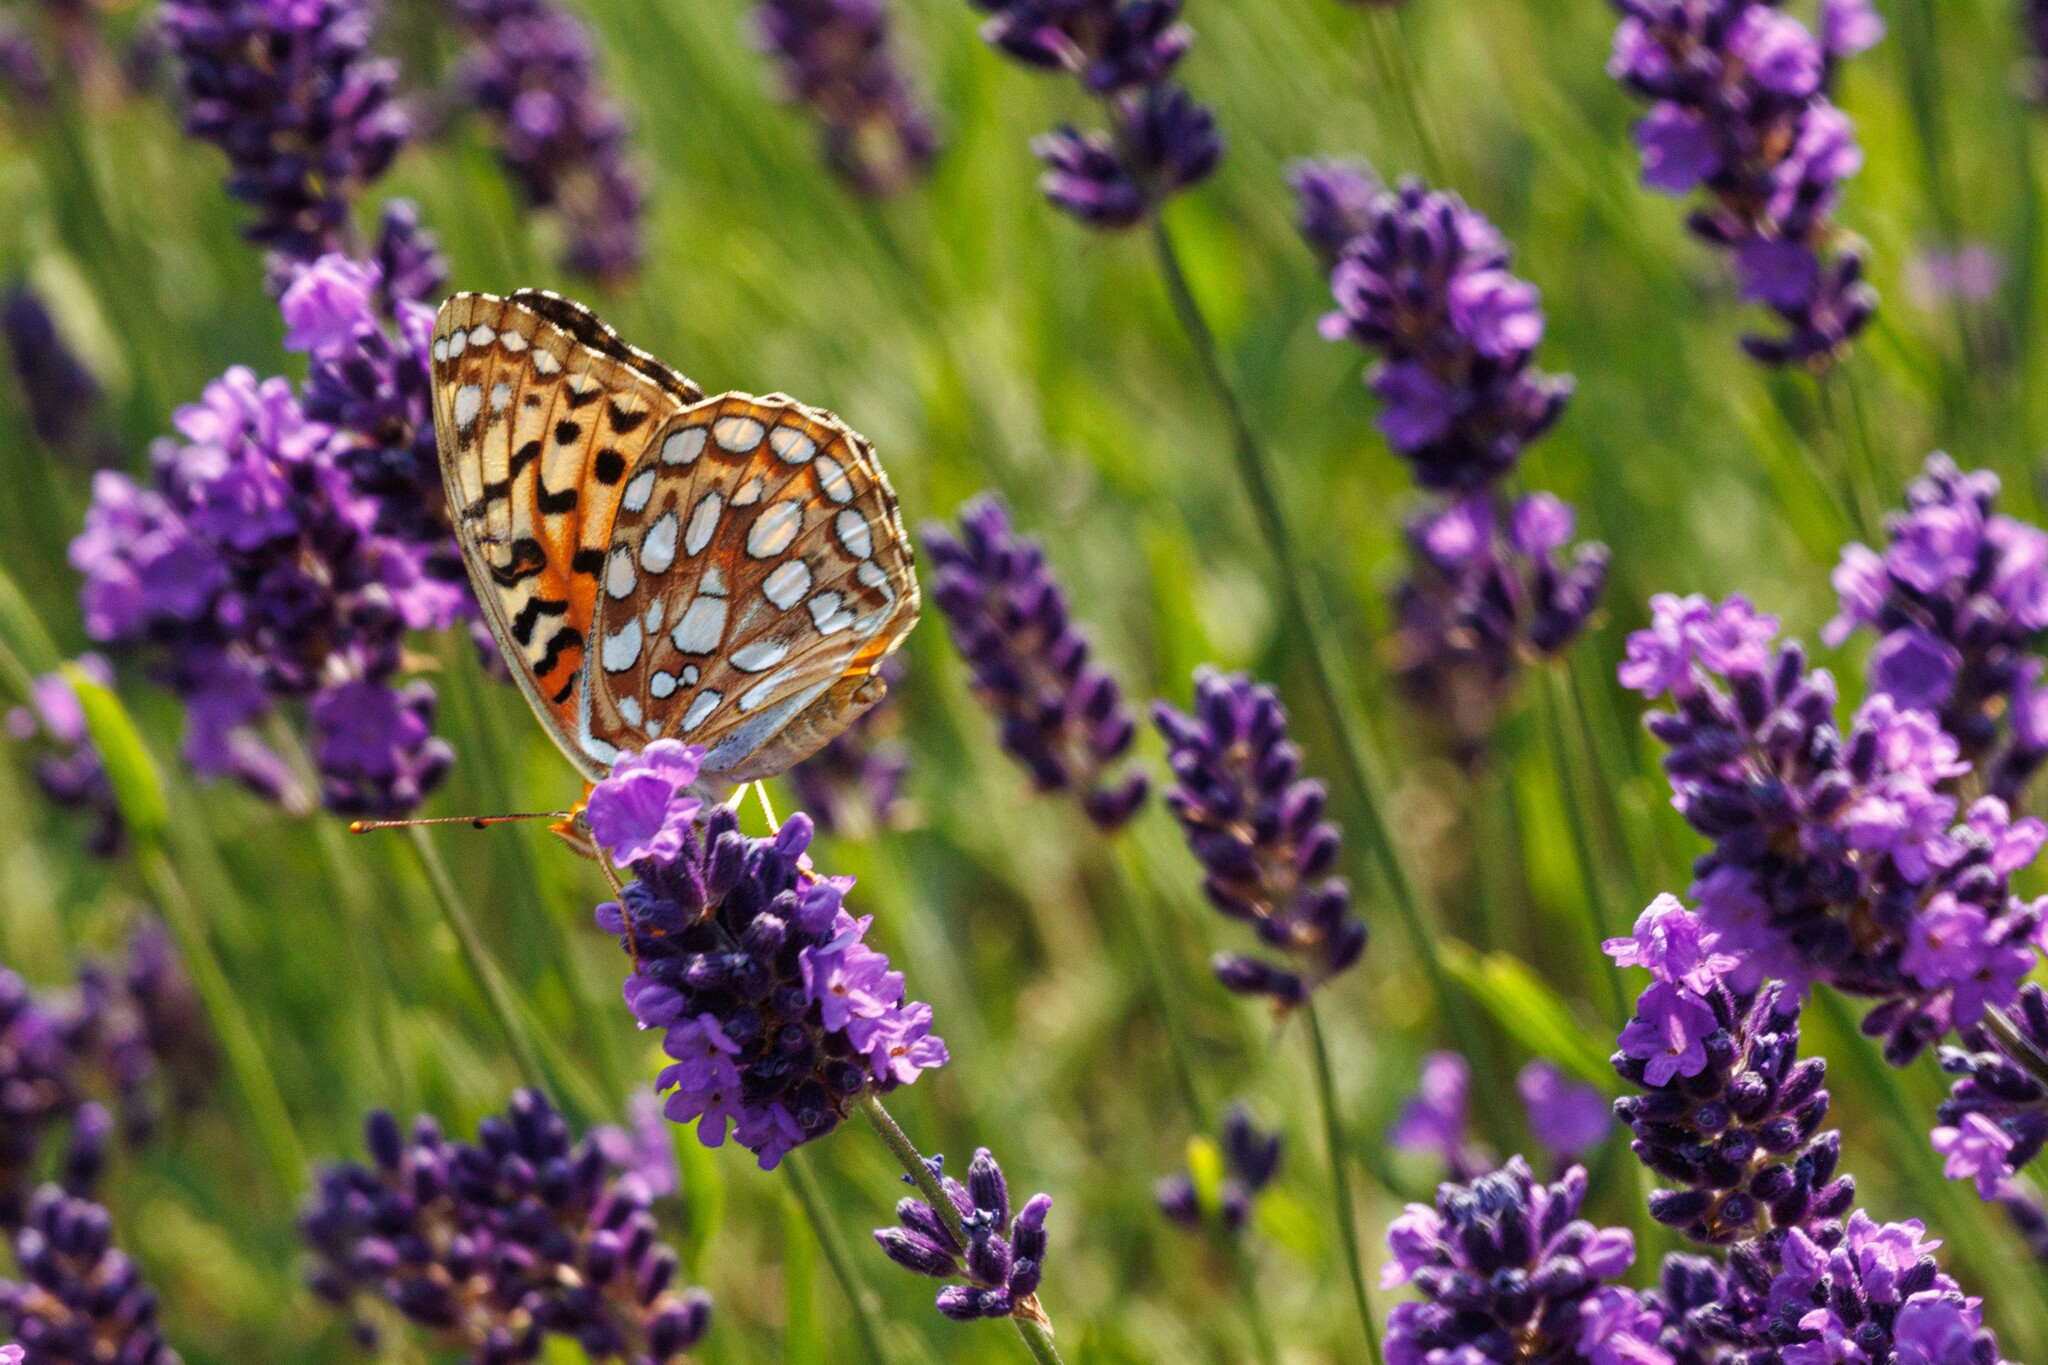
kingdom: Animalia
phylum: Arthropoda
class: Insecta
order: Lepidoptera
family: Nymphalidae
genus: Argynnis
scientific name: Argynnis coronis
